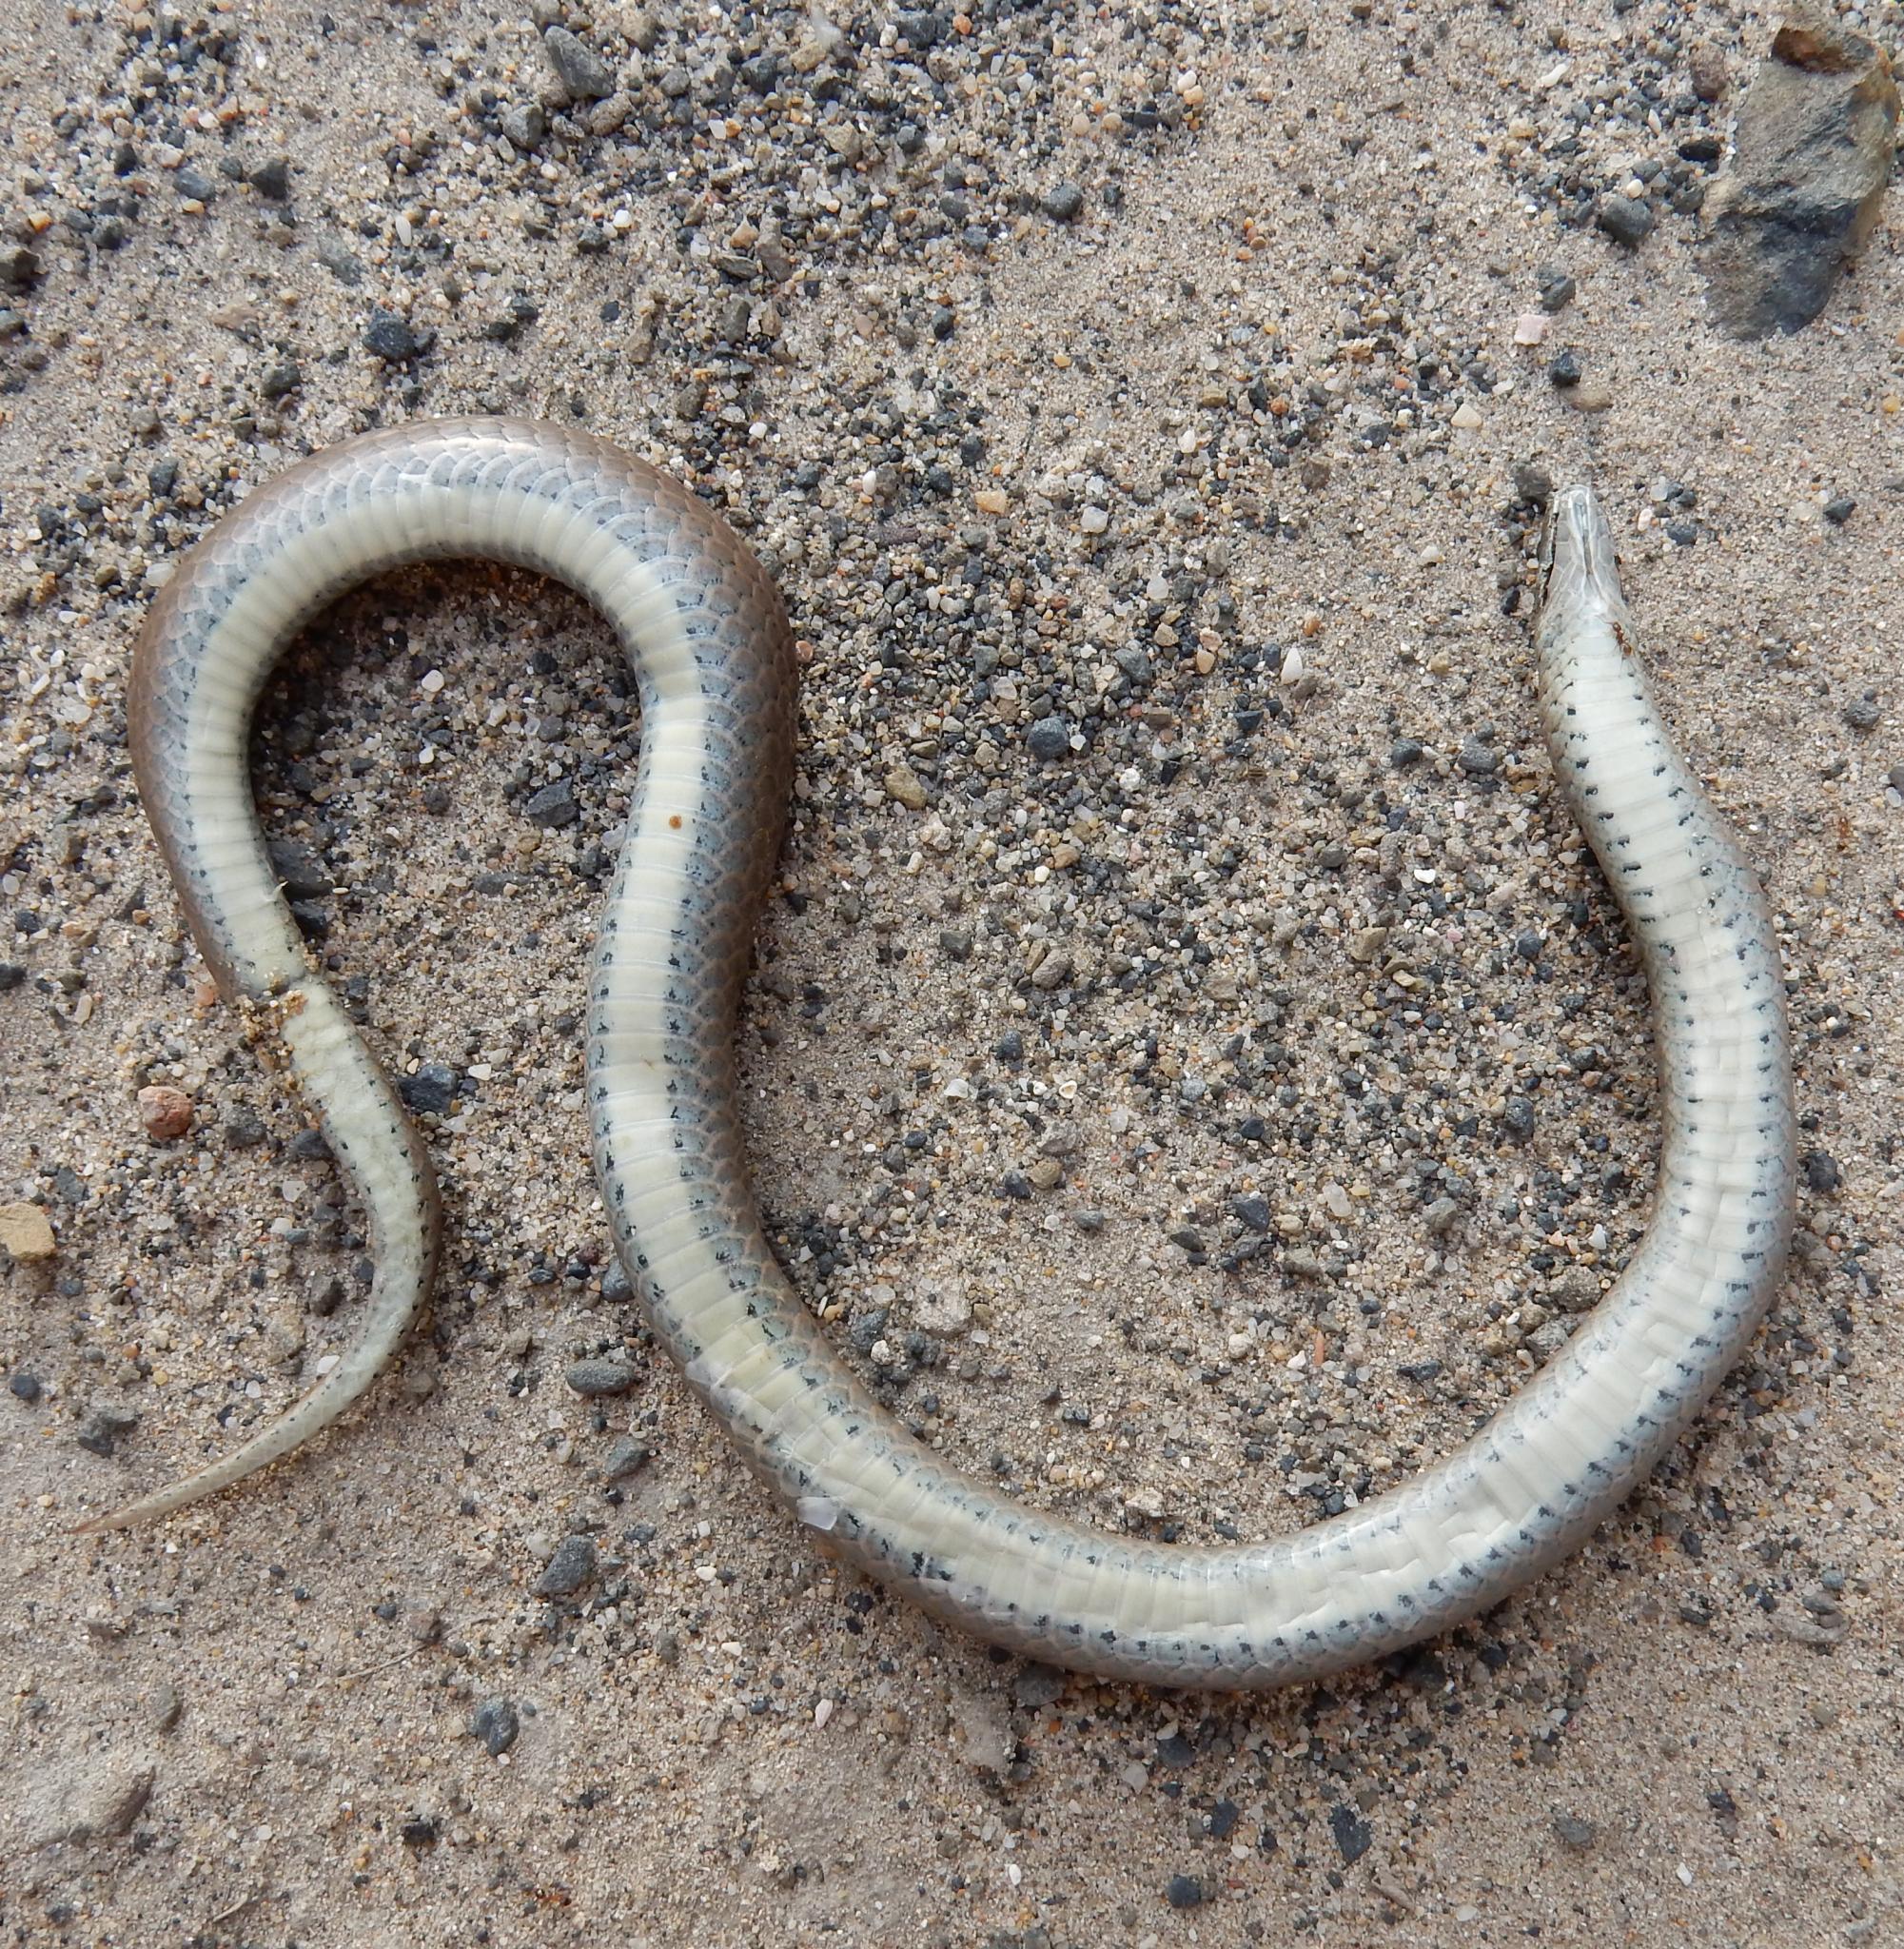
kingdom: Animalia
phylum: Chordata
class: Squamata
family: Pseudoxyrhophiidae
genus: Duberria
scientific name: Duberria lutrix
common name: Common slug eater
